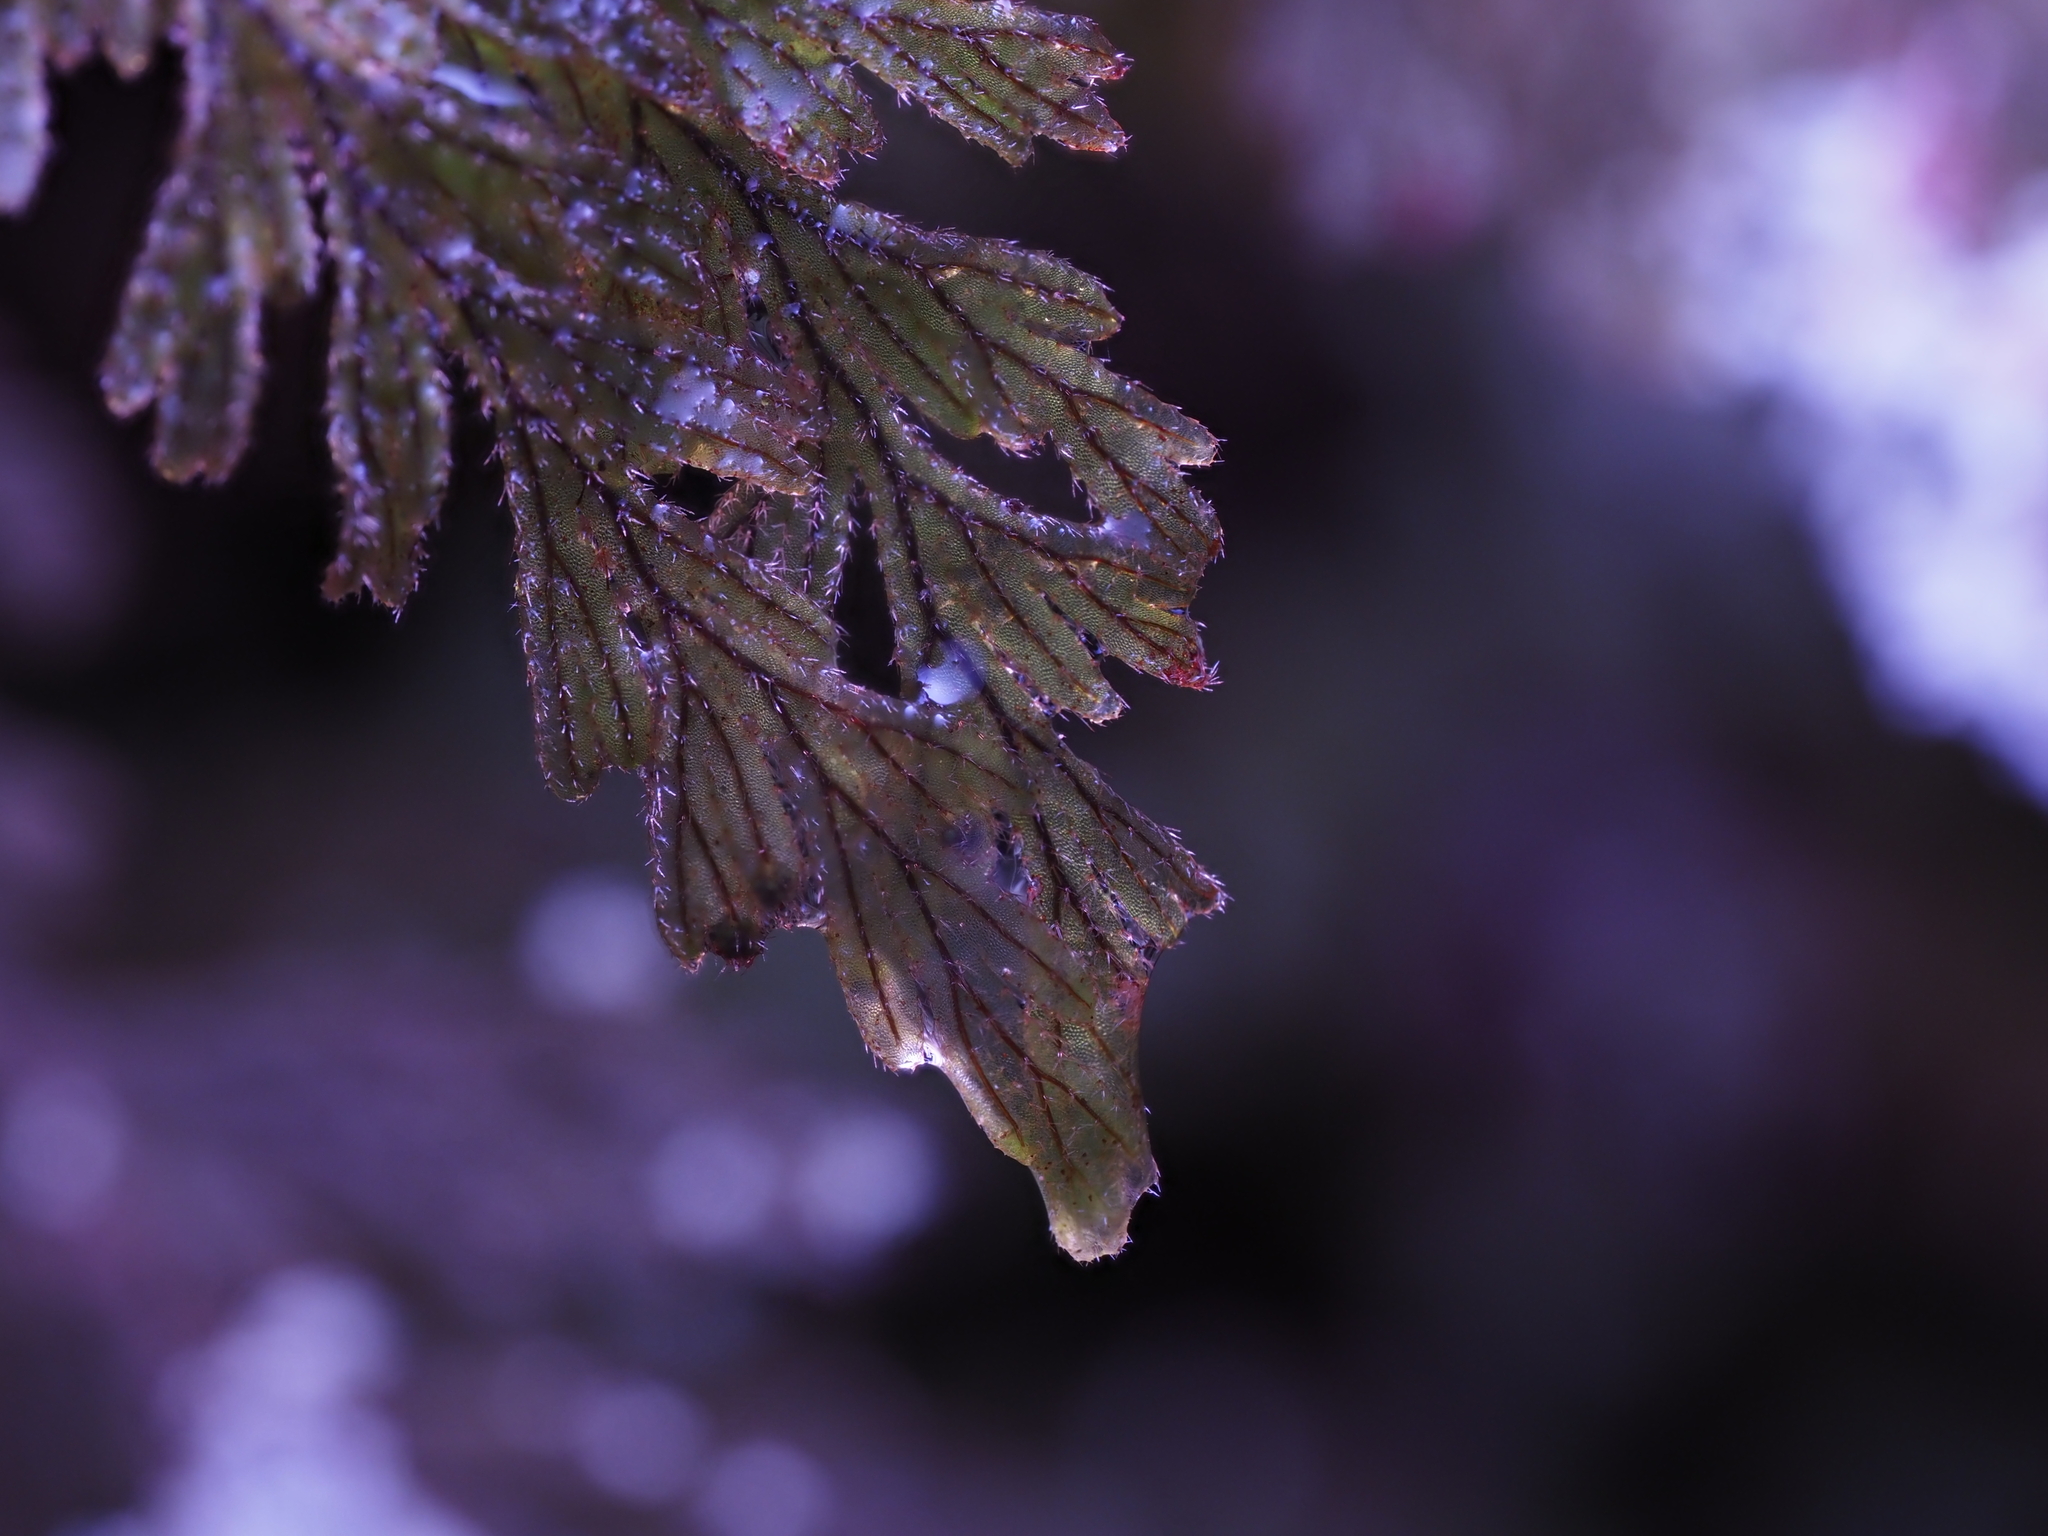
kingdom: Plantae
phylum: Tracheophyta
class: Polypodiopsida
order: Hymenophyllales
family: Hymenophyllaceae
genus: Hymenophyllum
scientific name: Hymenophyllum frankliniae
